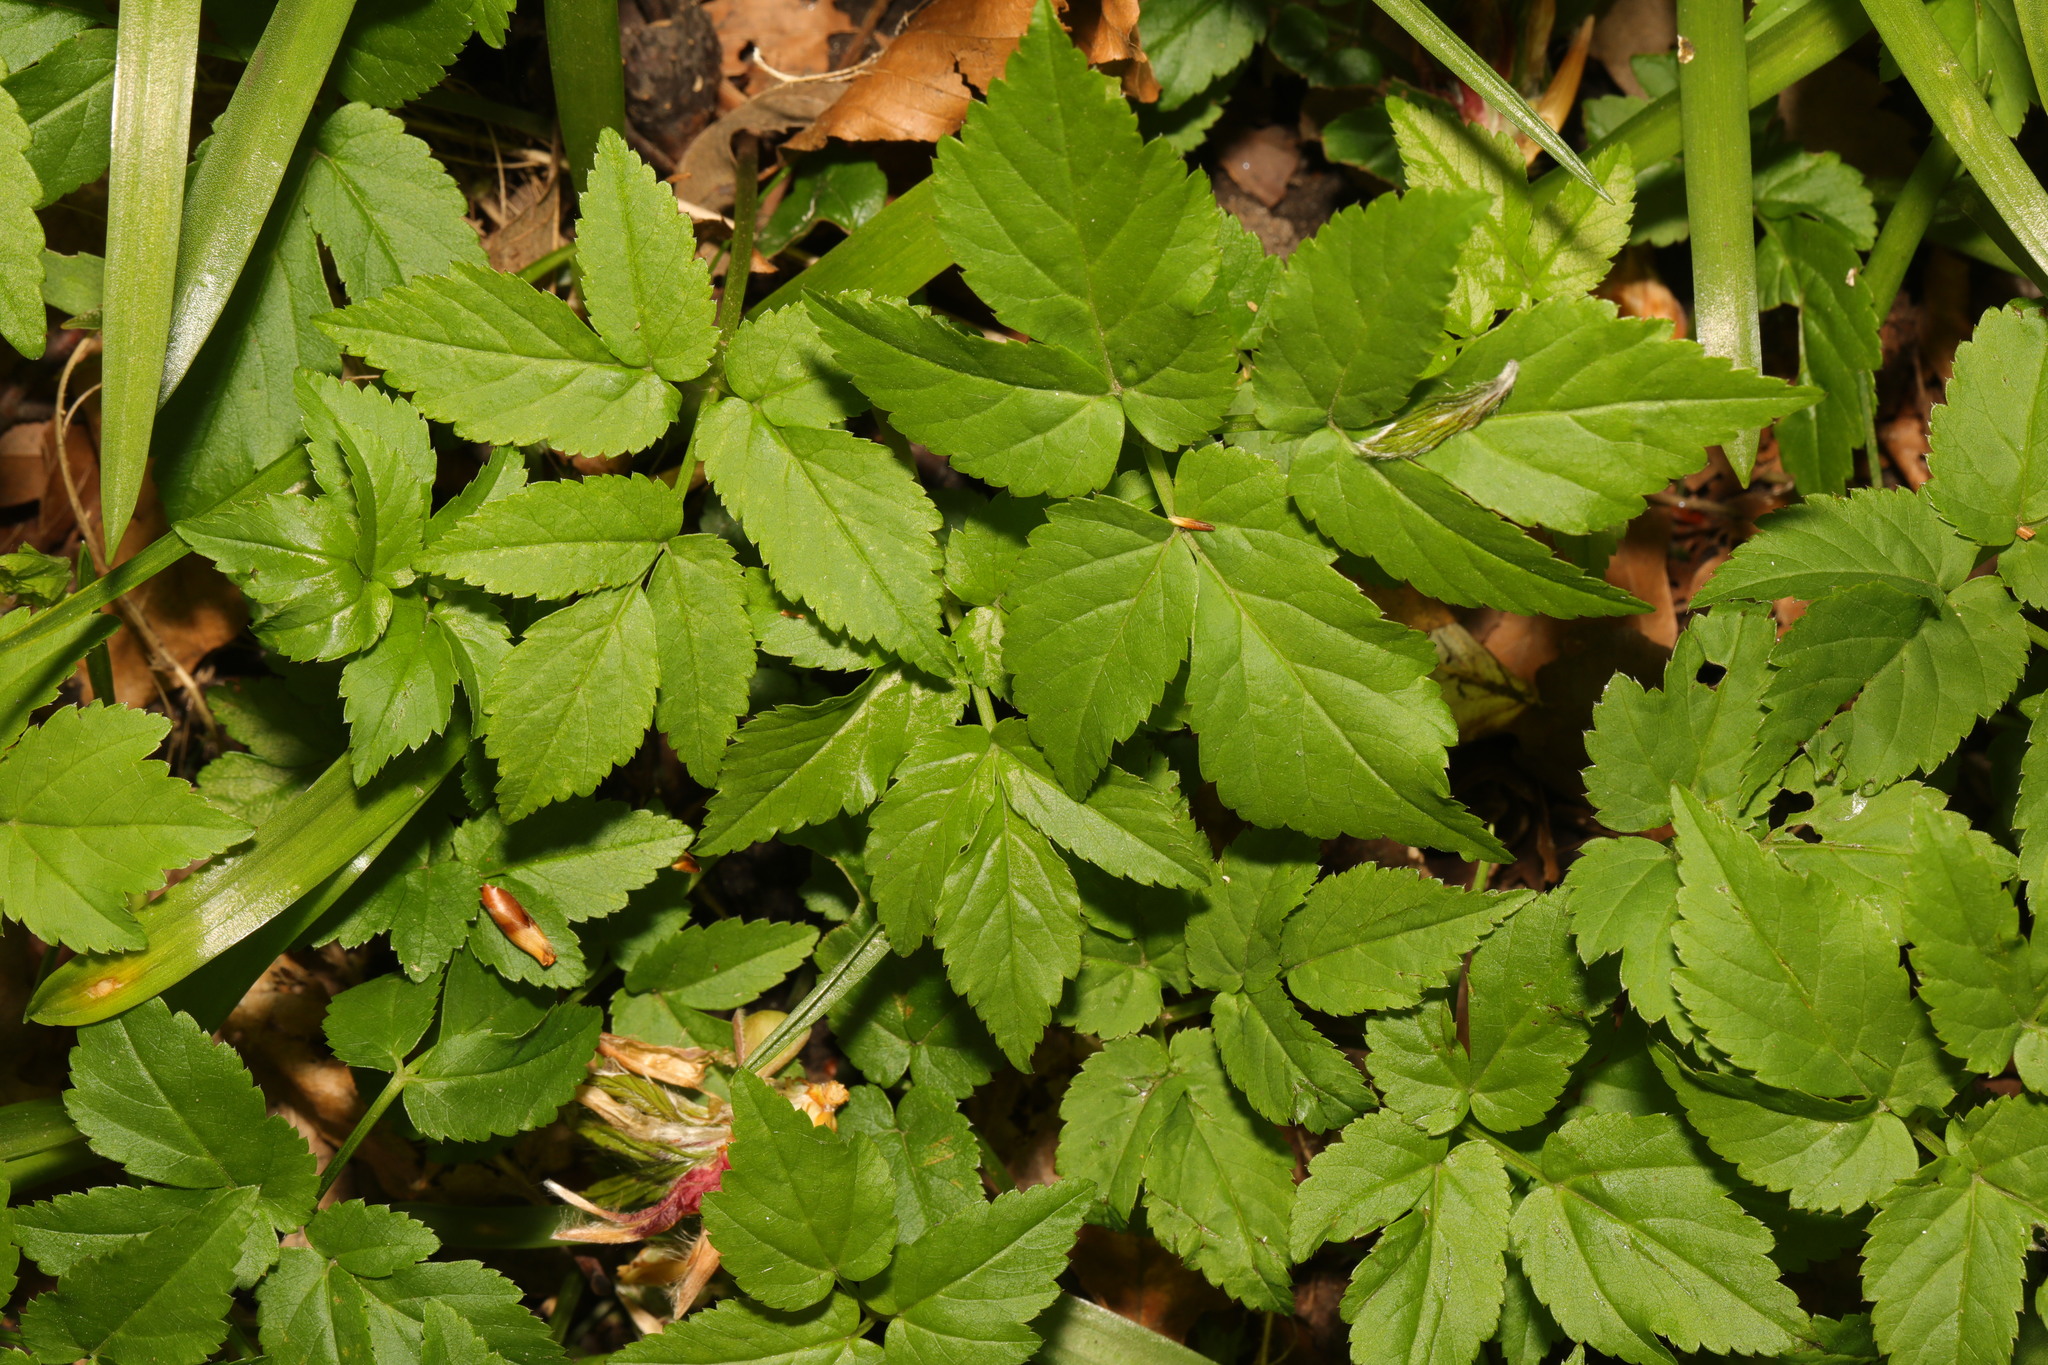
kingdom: Plantae
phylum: Tracheophyta
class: Magnoliopsida
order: Apiales
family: Apiaceae
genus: Aegopodium
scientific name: Aegopodium podagraria
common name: Ground-elder
